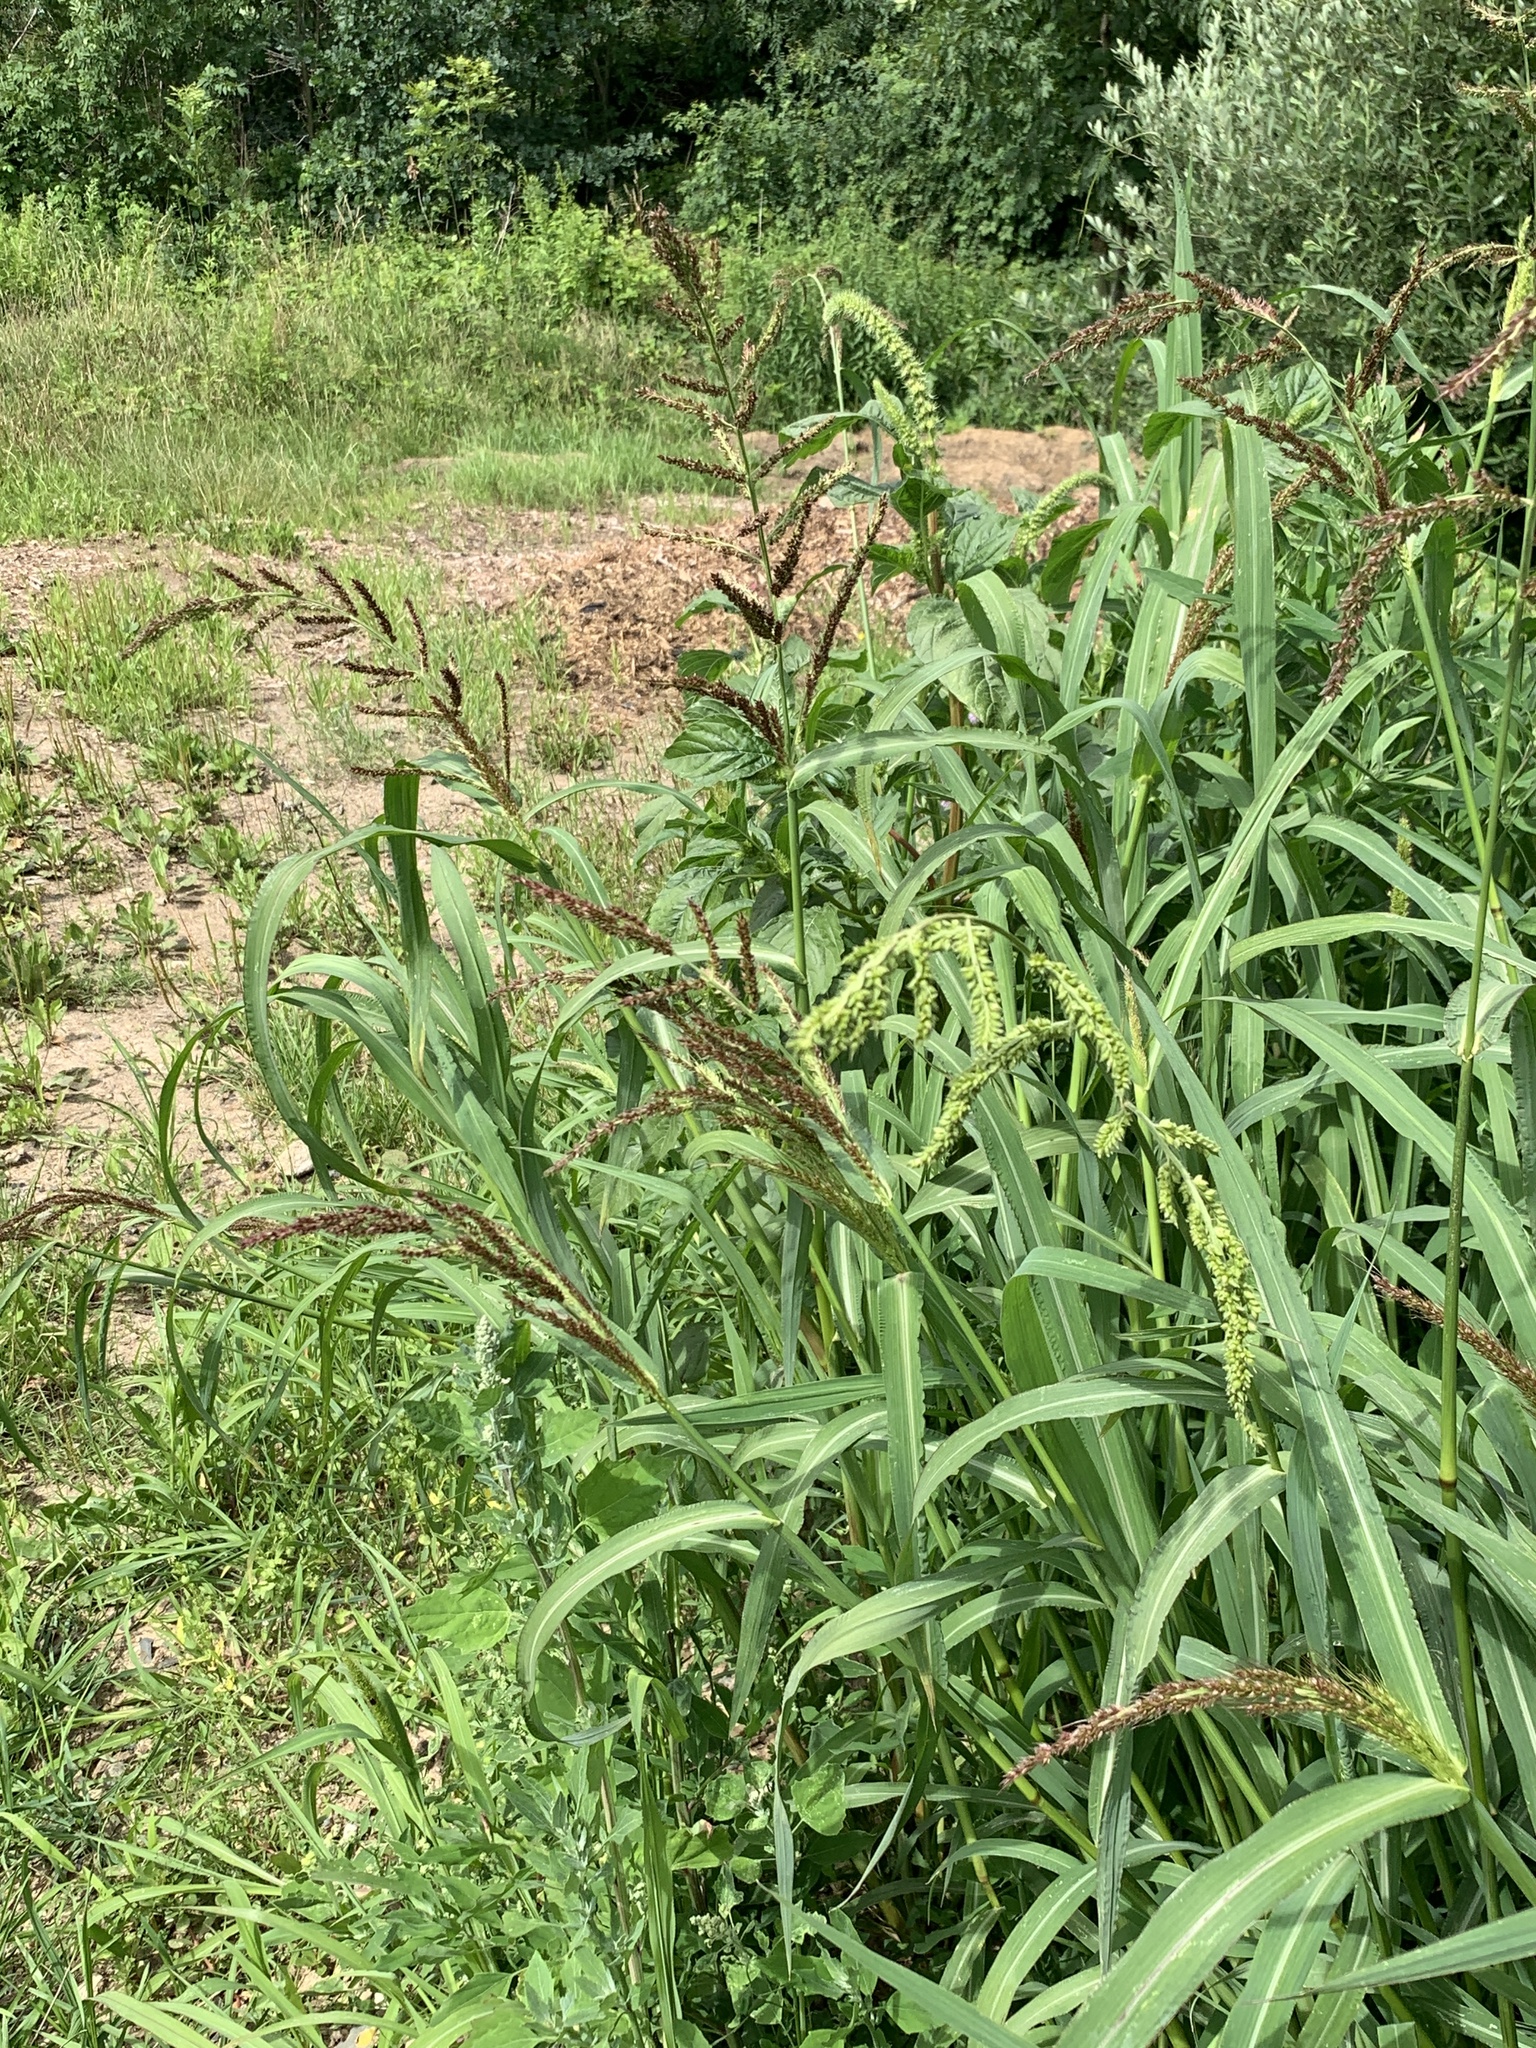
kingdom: Plantae
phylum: Tracheophyta
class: Liliopsida
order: Poales
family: Poaceae
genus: Echinochloa
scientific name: Echinochloa crus-galli
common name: Cockspur
